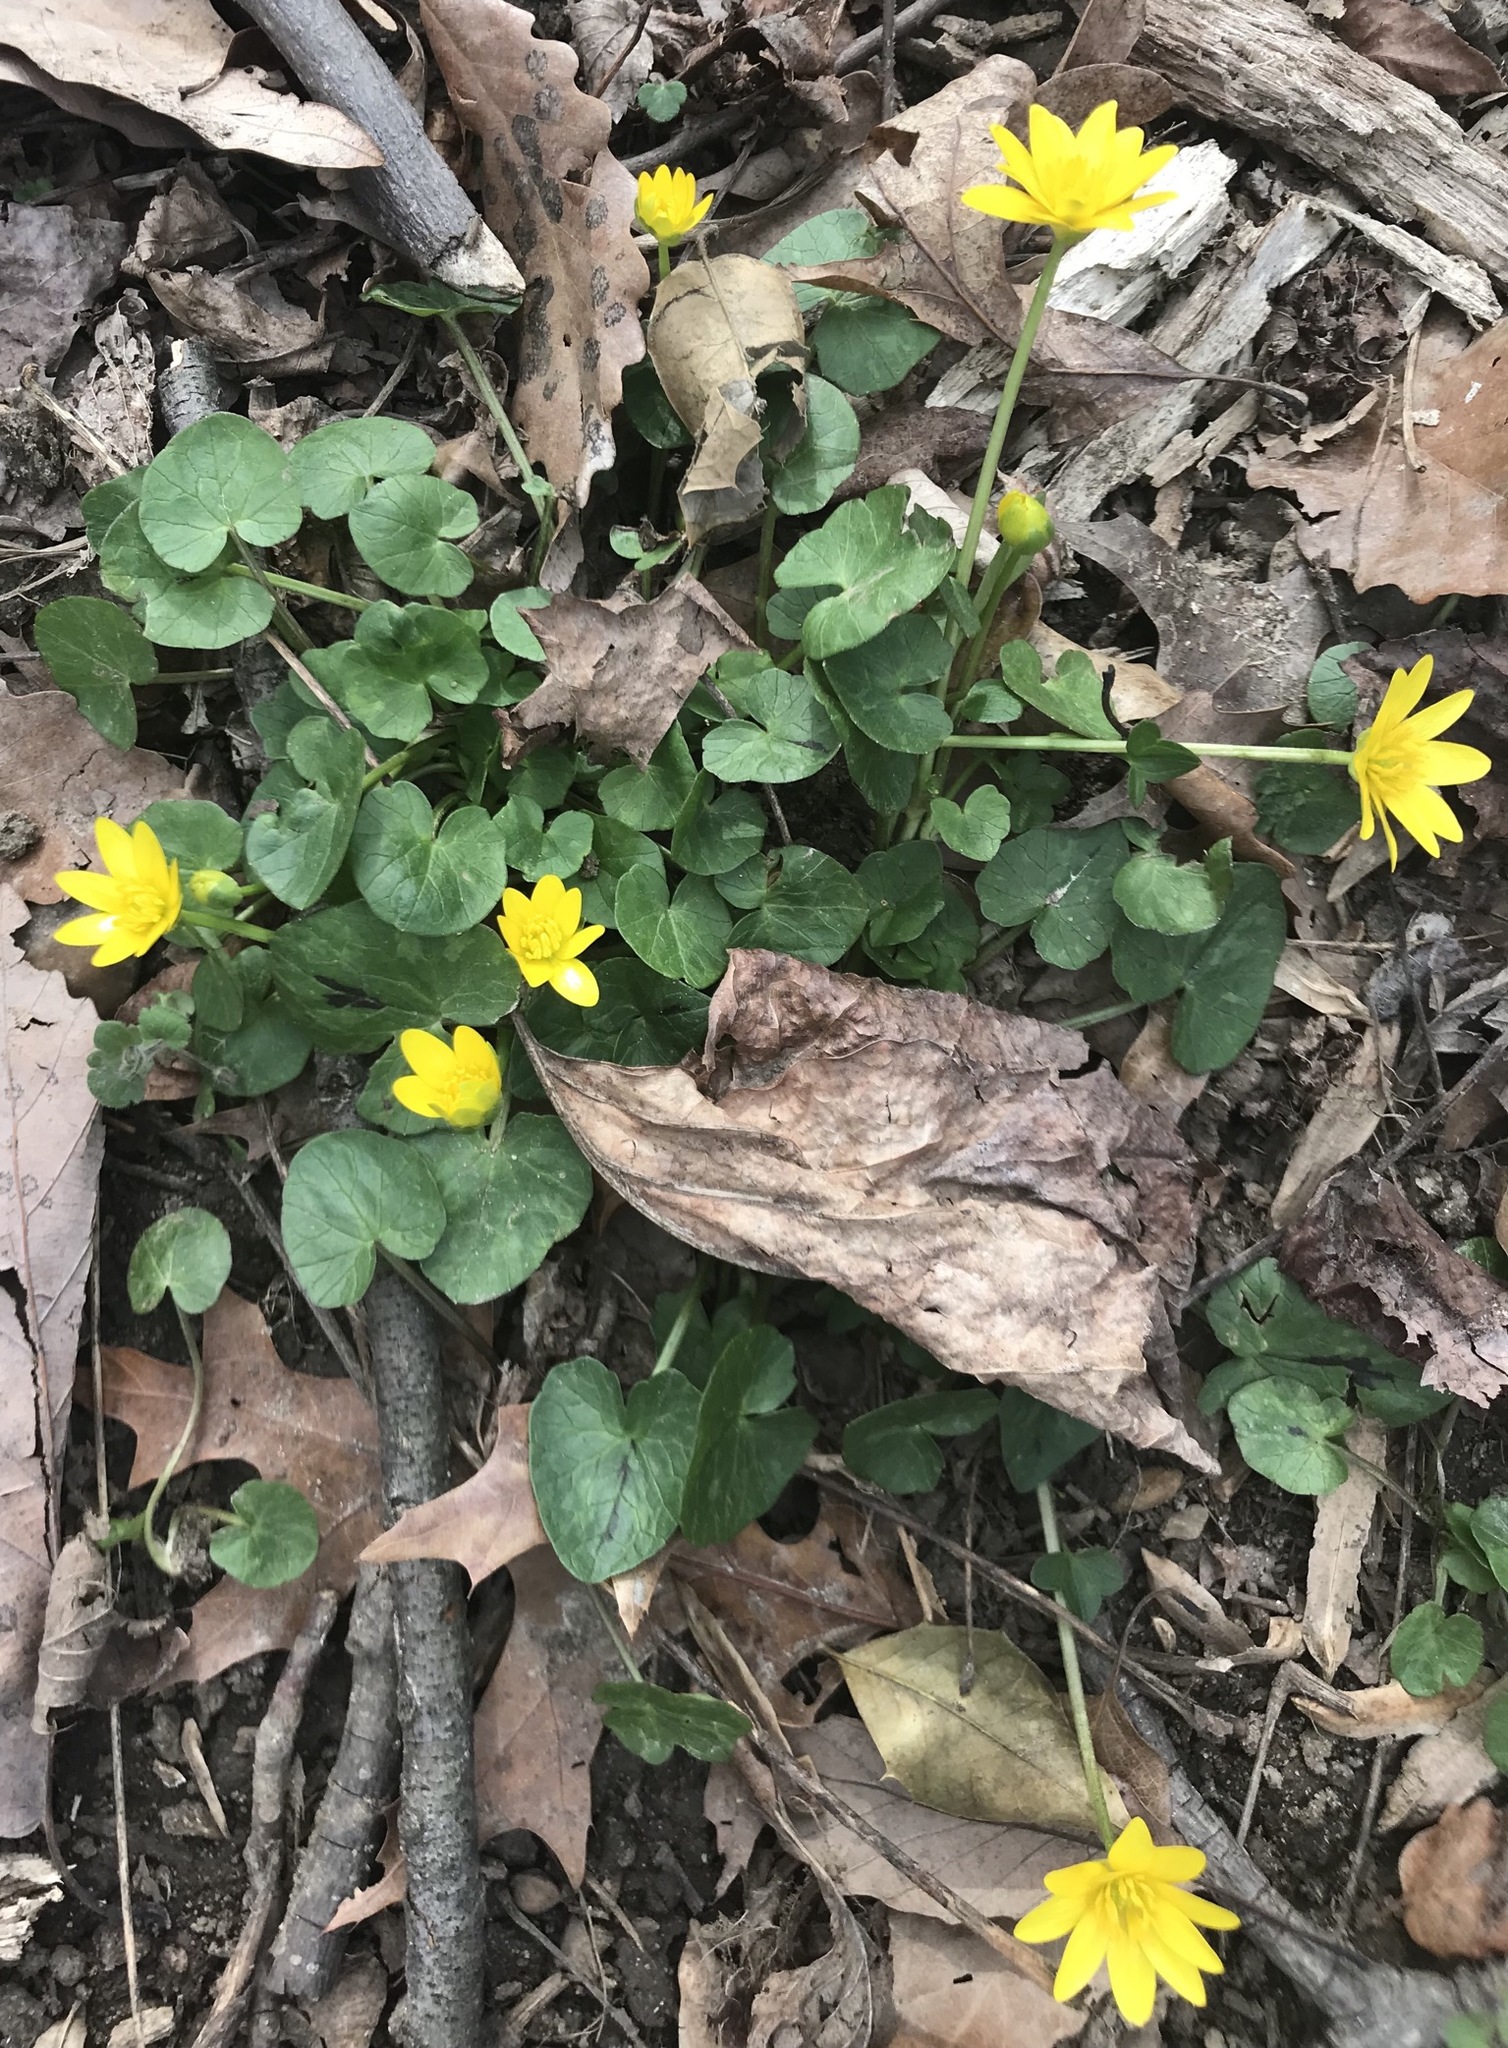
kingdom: Plantae
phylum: Tracheophyta
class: Magnoliopsida
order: Ranunculales
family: Ranunculaceae
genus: Ficaria
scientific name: Ficaria verna
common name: Lesser celandine
